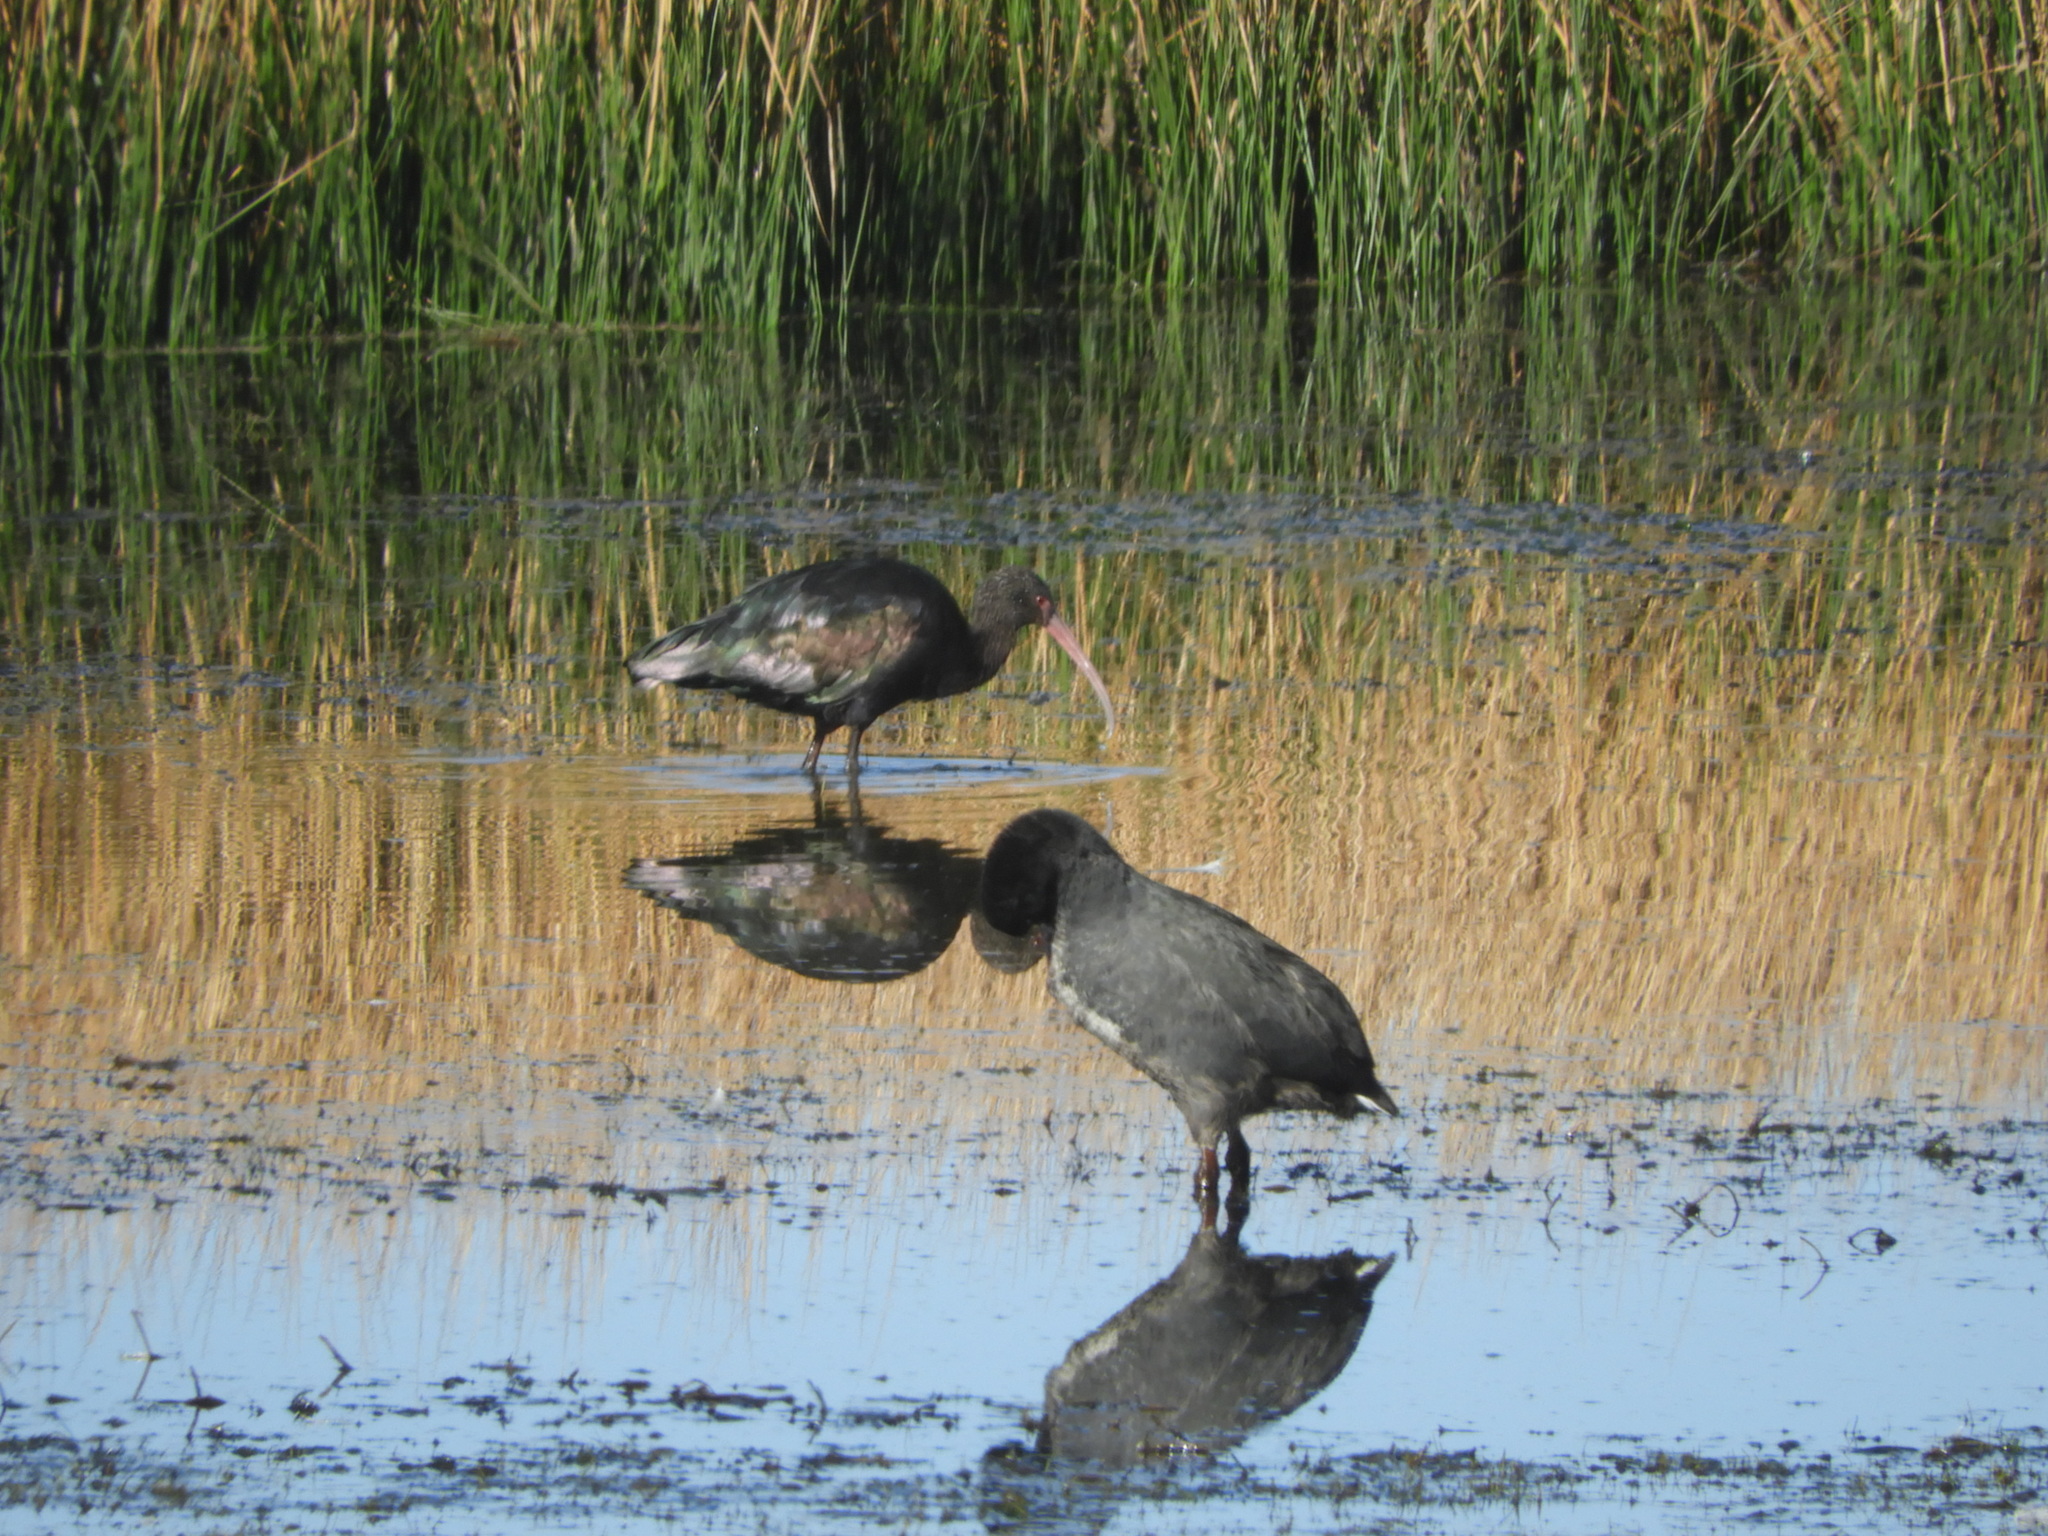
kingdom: Animalia
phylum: Chordata
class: Aves
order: Gruiformes
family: Rallidae
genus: Fulica
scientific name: Fulica gigantea
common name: Giant coot
